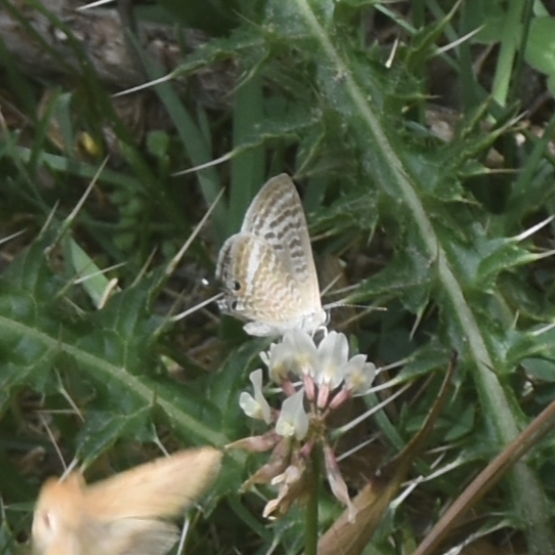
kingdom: Animalia
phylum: Arthropoda
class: Insecta
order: Lepidoptera
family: Lycaenidae
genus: Lampides
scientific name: Lampides boeticus
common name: Long-tailed blue
